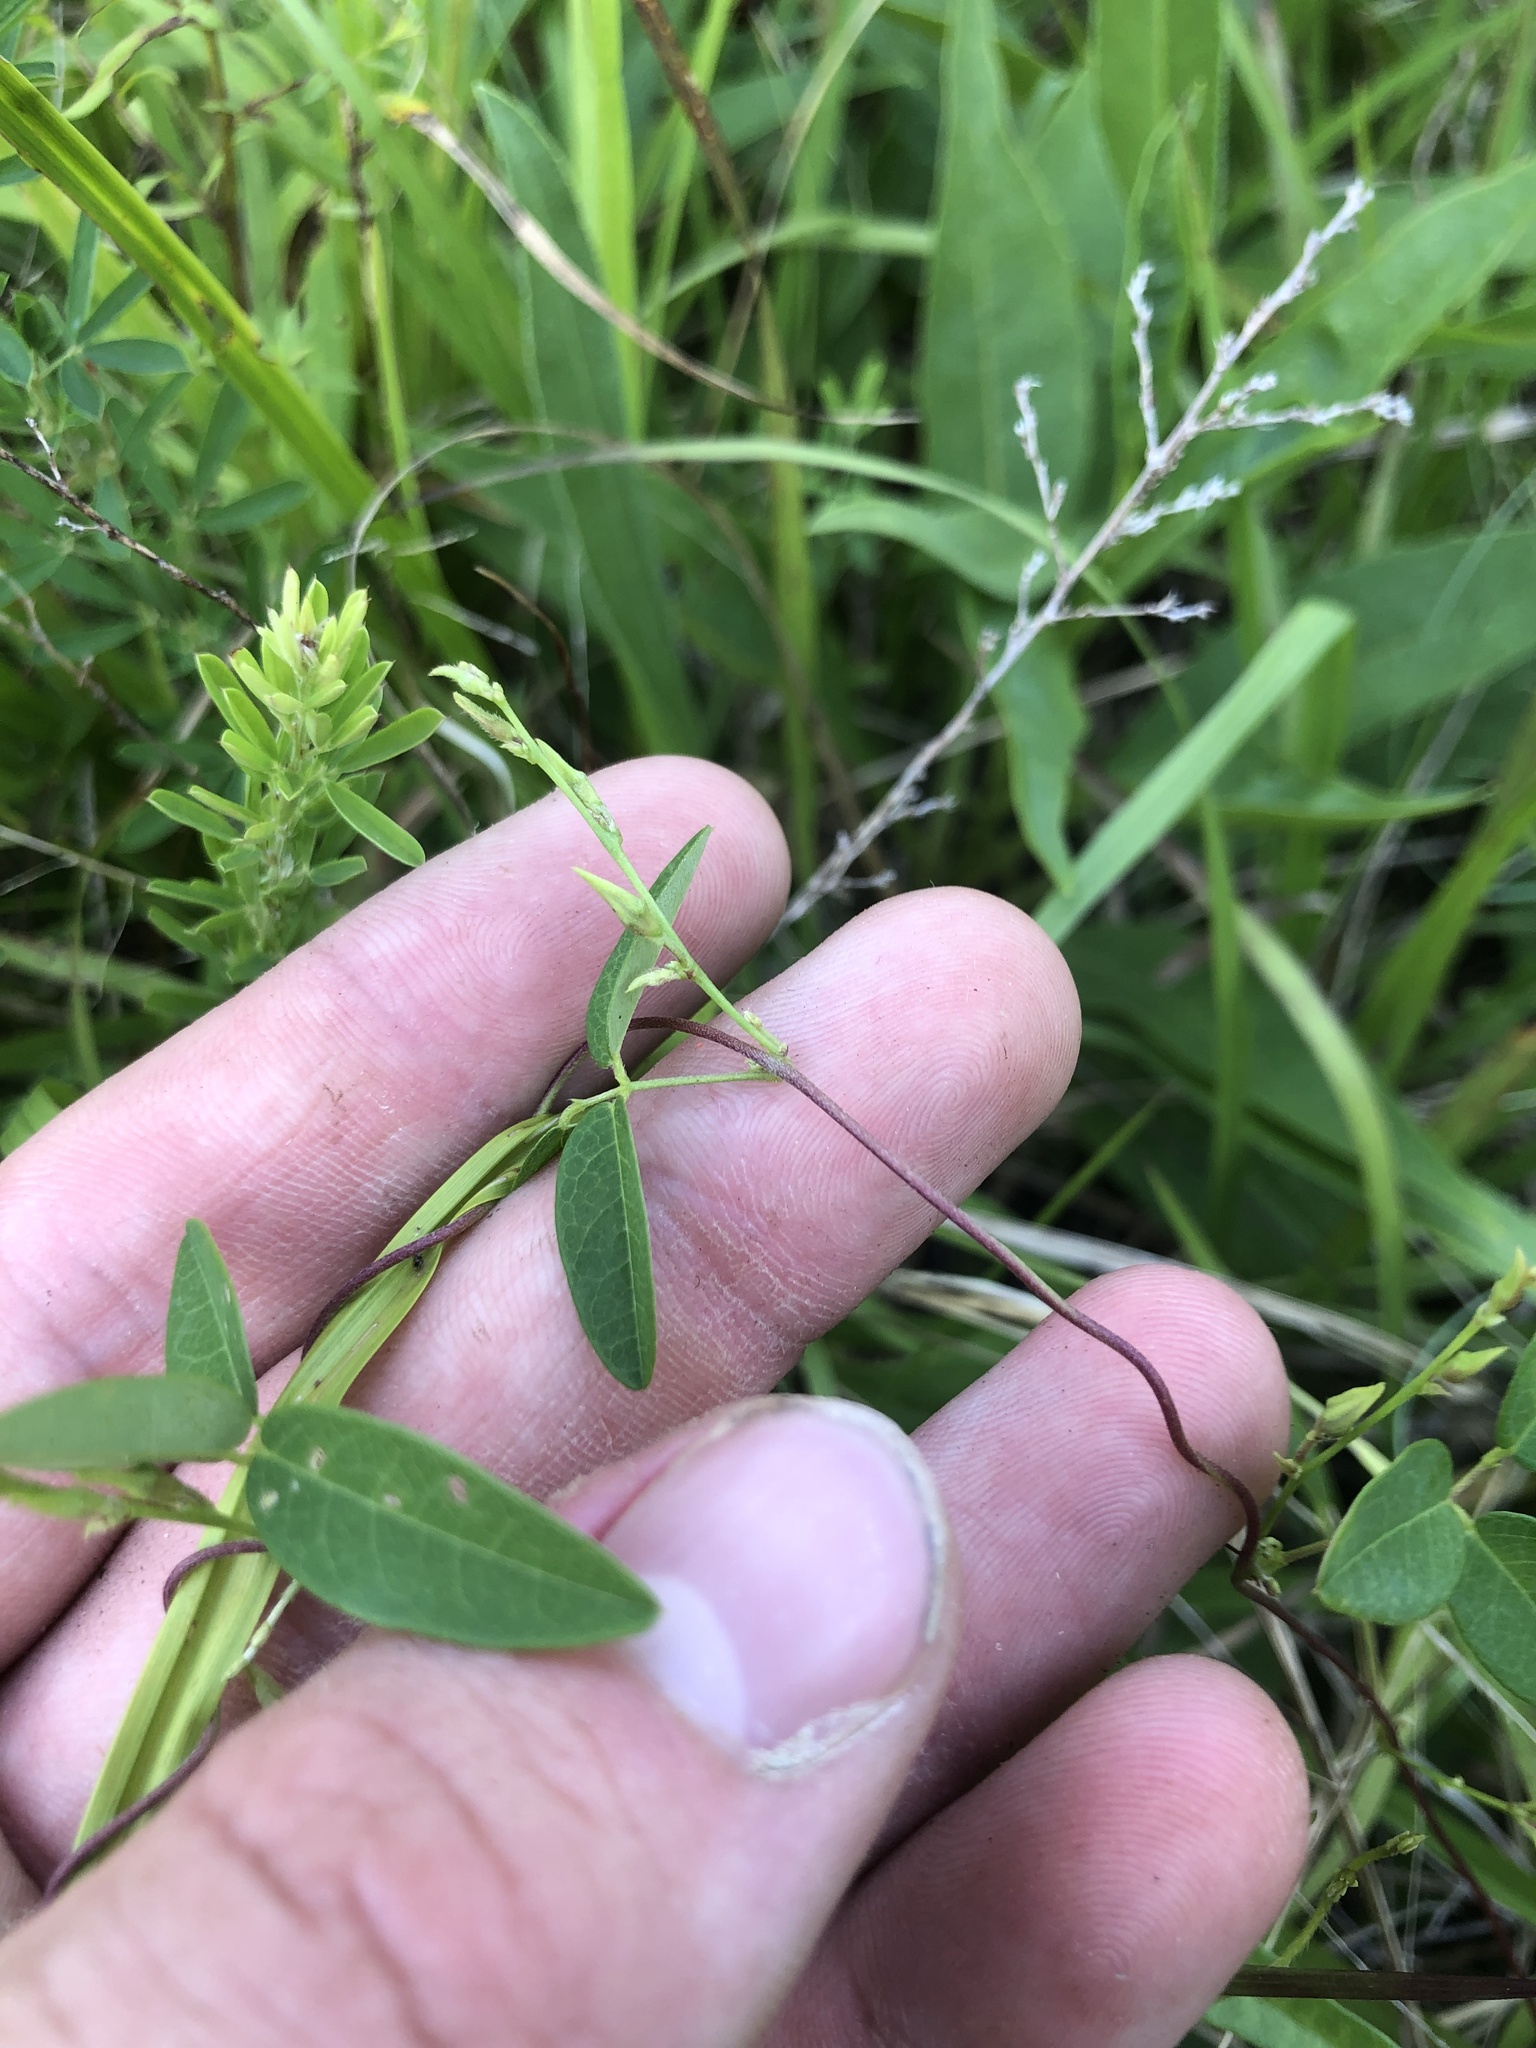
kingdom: Plantae
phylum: Tracheophyta
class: Magnoliopsida
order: Fabales
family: Fabaceae
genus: Galactia
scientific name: Galactia volubilis
